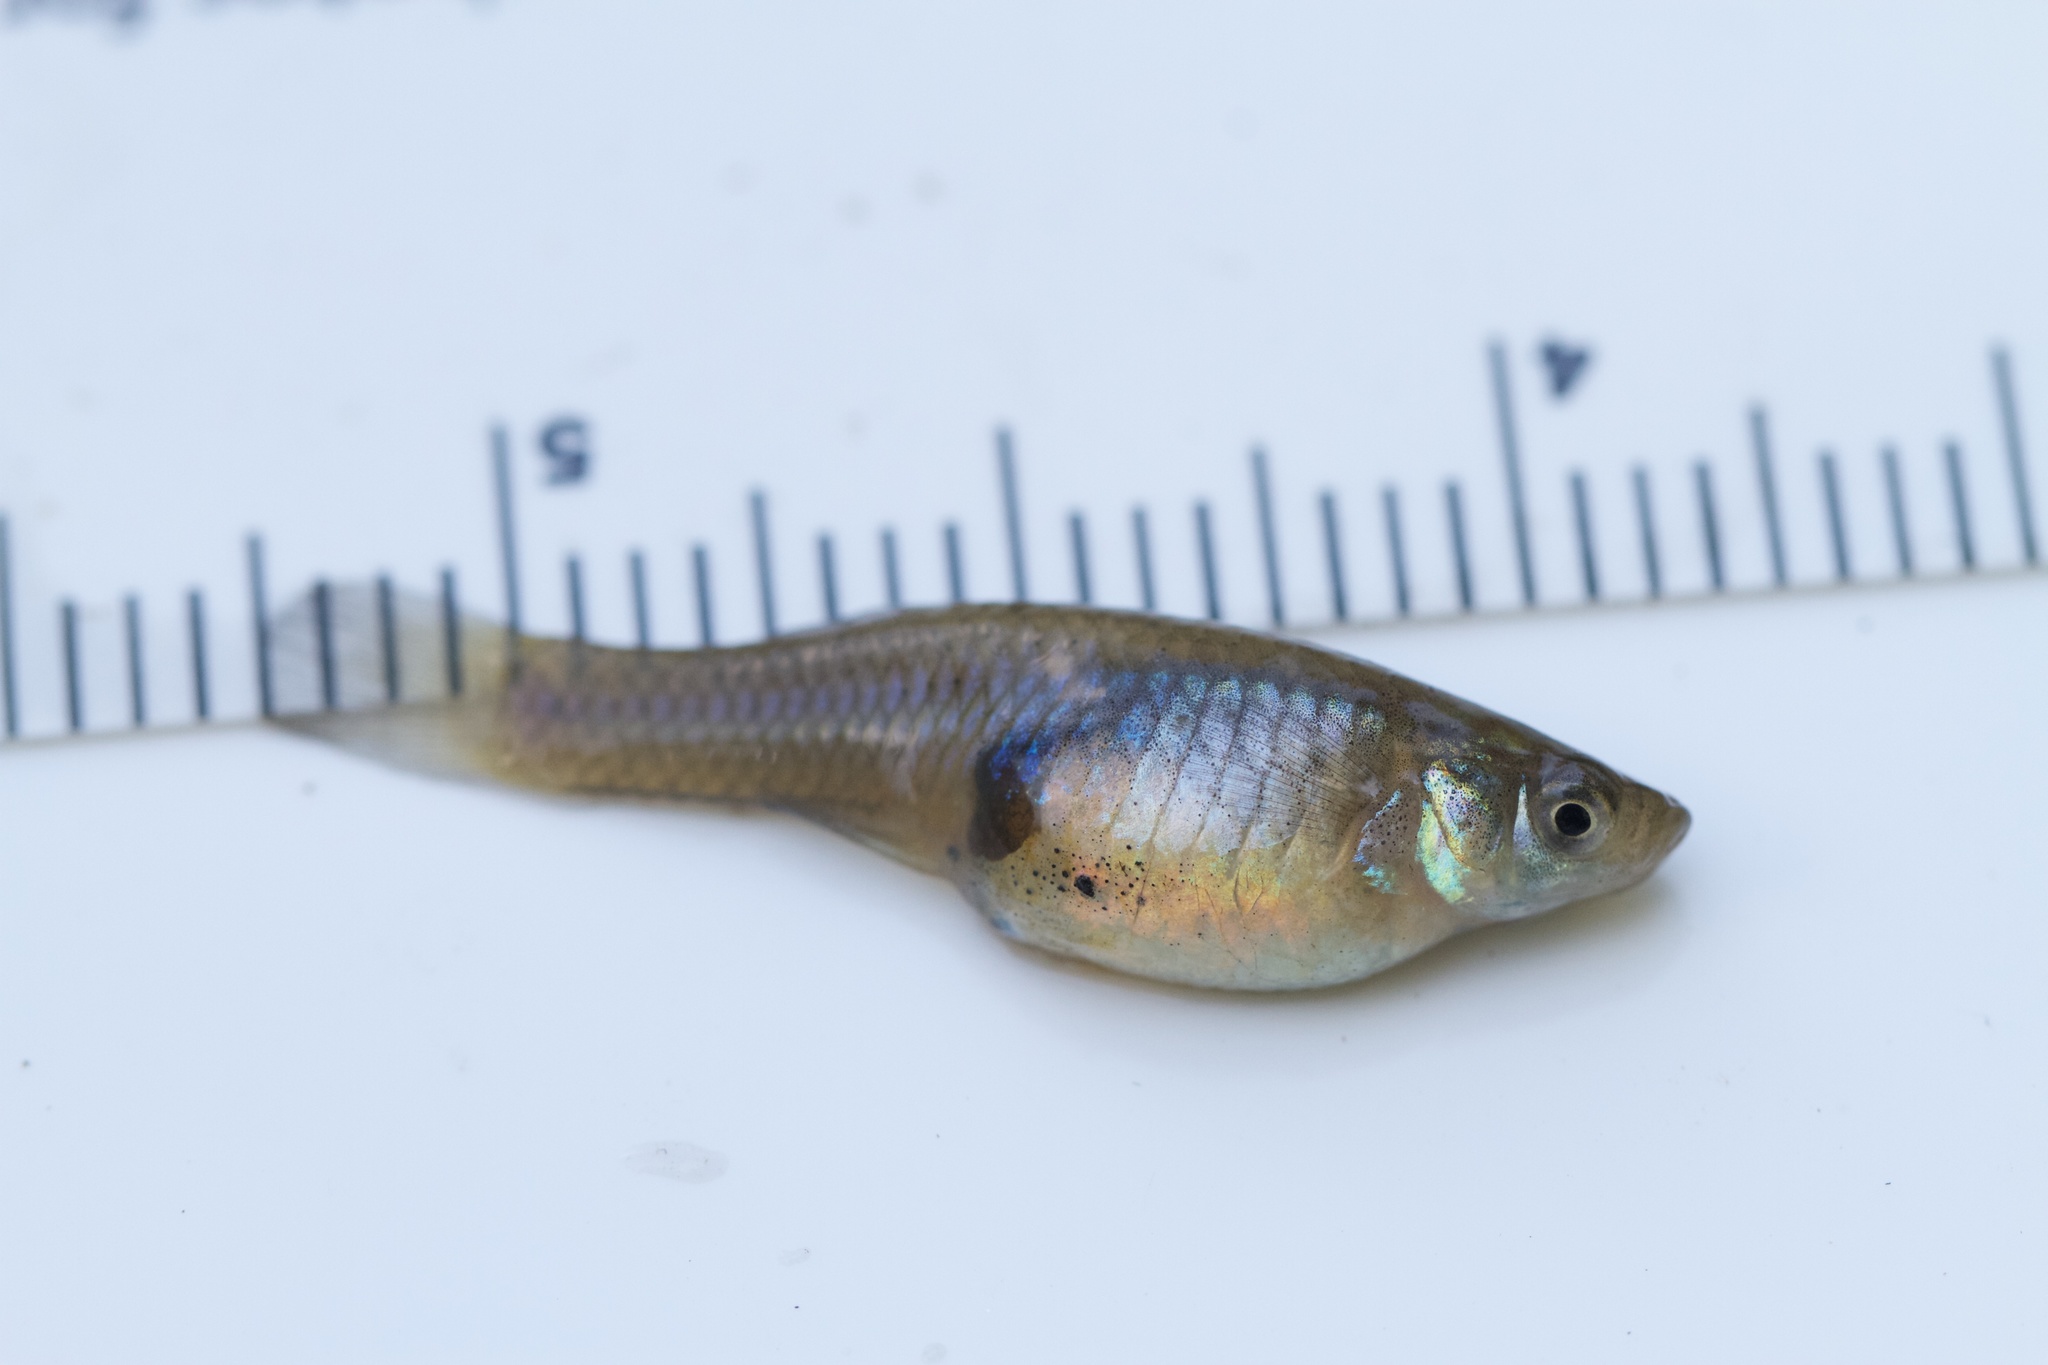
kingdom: Animalia
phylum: Chordata
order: Cyprinodontiformes
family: Poeciliidae
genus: Gambusia
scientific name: Gambusia holbrooki
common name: Eastern mosquitofish
